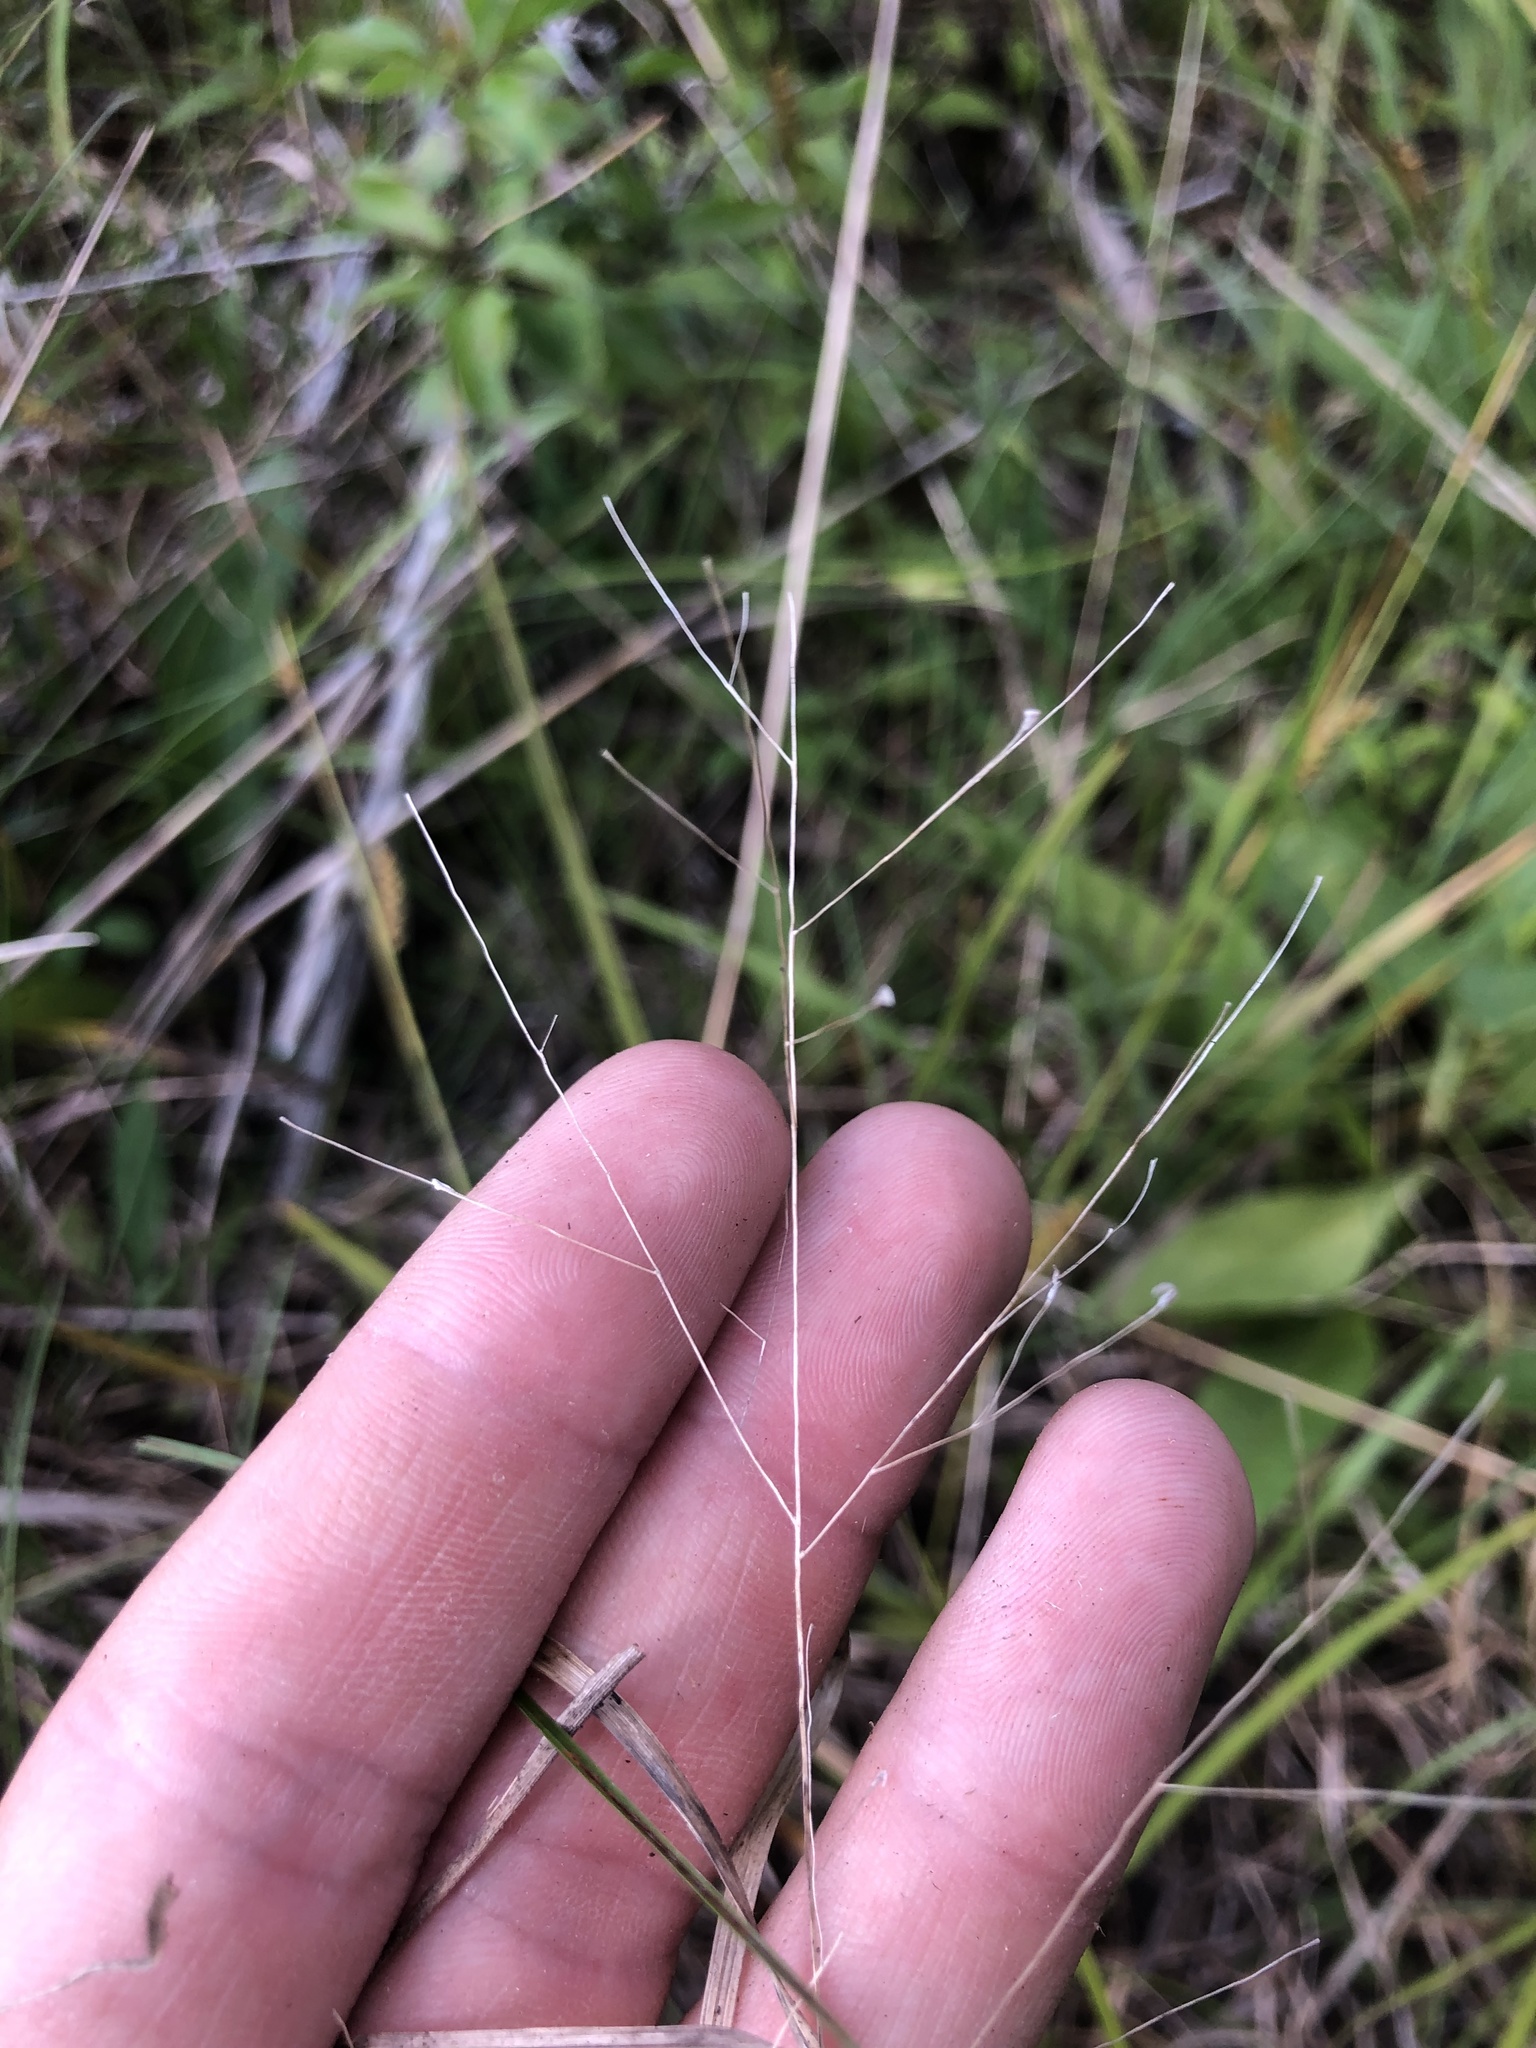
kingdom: Plantae
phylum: Tracheophyta
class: Liliopsida
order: Poales
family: Poaceae
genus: Panicum
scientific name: Panicum flexile
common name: Wiry panicgrass
